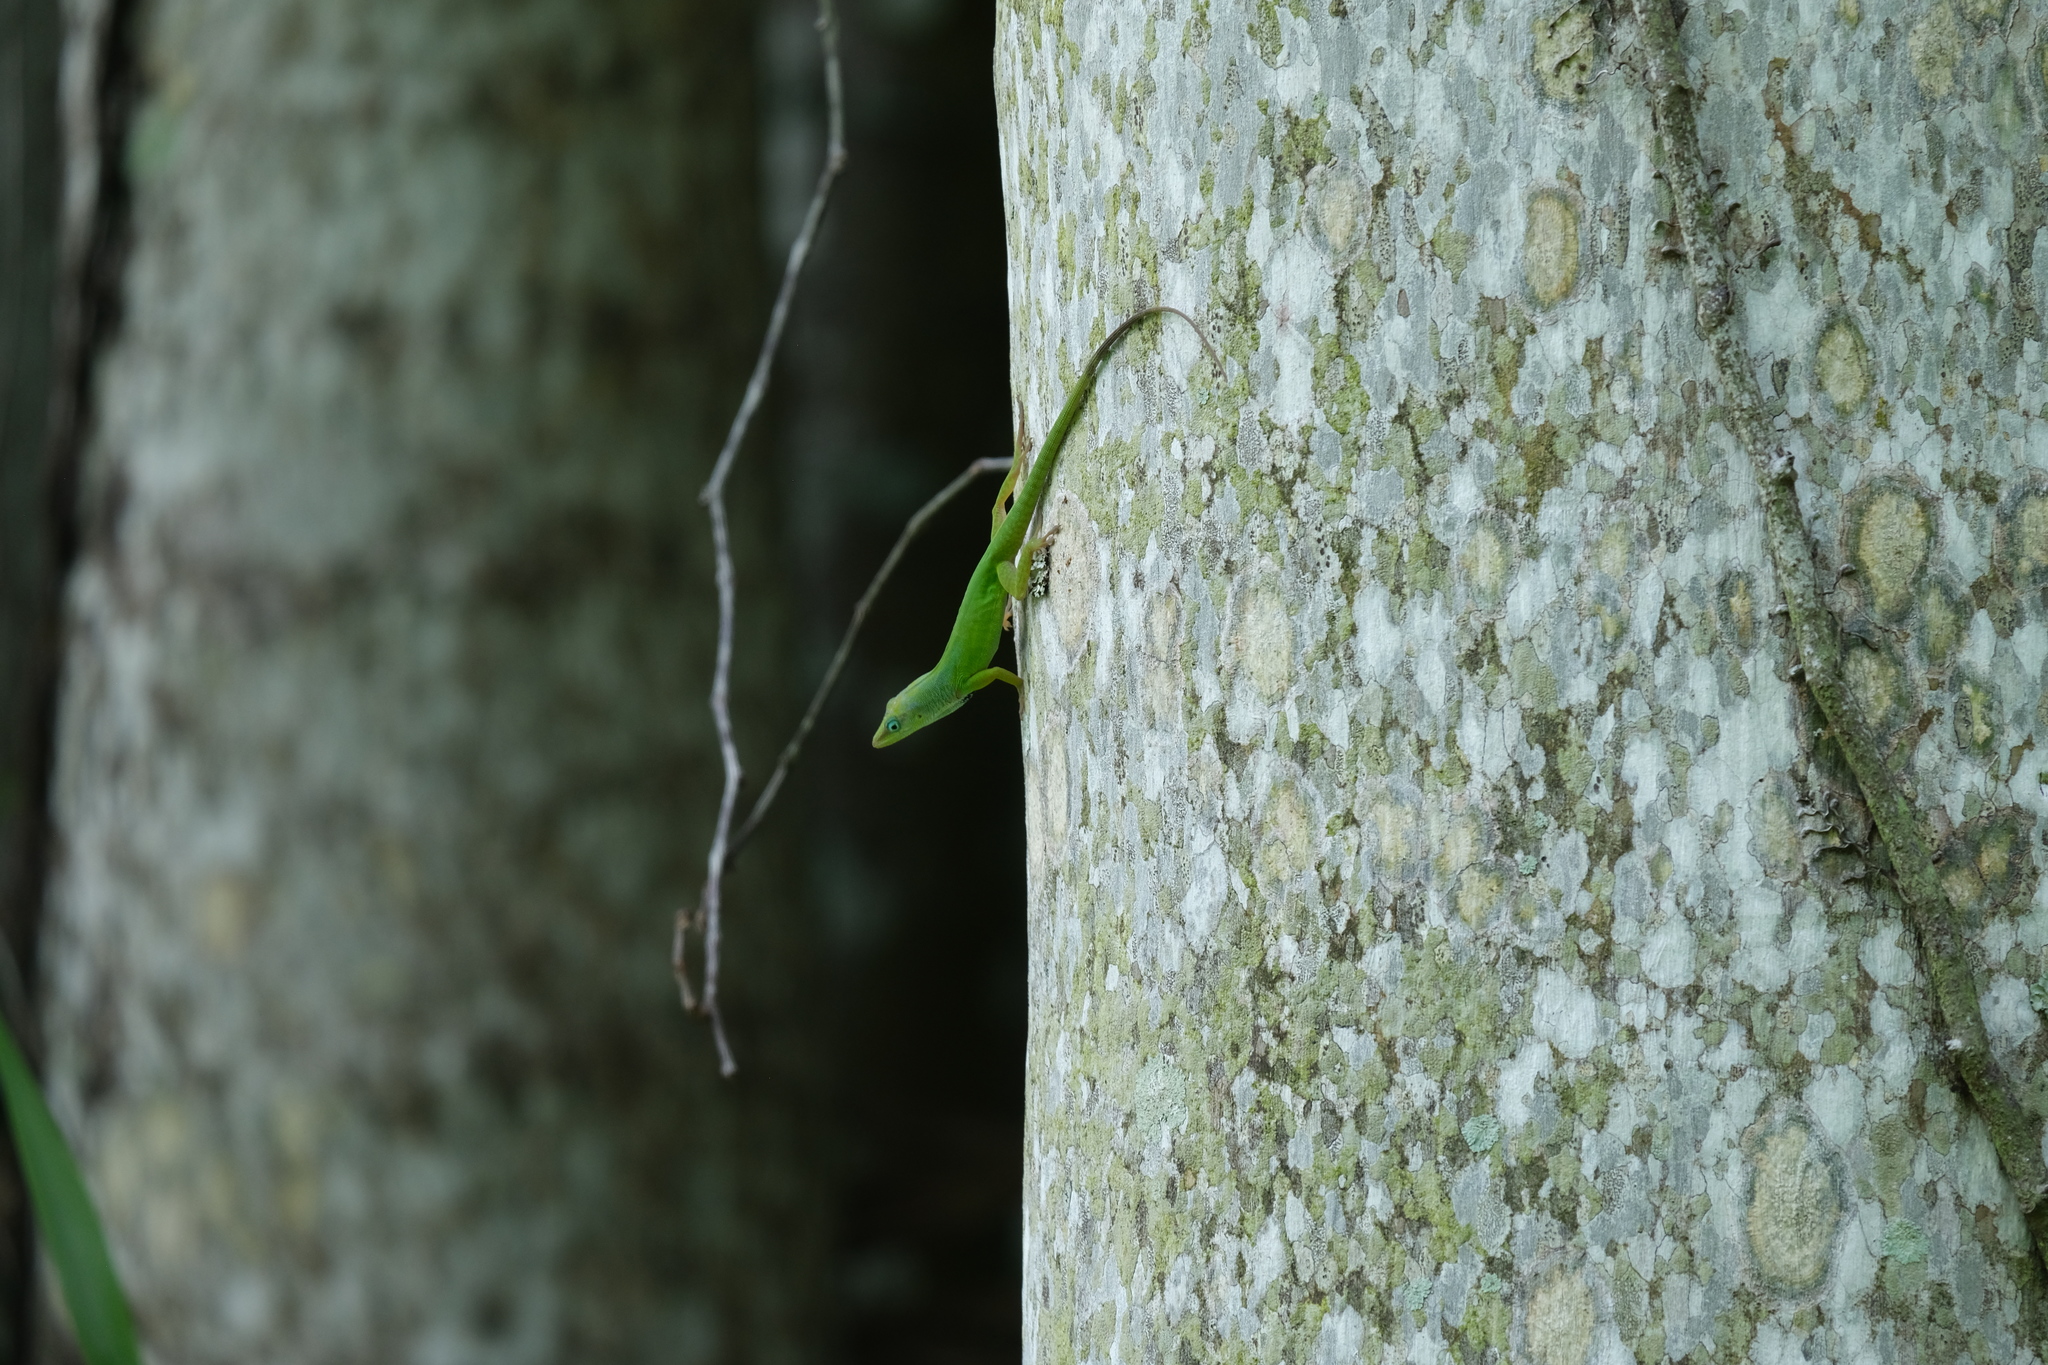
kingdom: Animalia
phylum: Chordata
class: Squamata
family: Dactyloidae
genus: Anolis
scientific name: Anolis chlorocyanus
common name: Hispaniolan green anole
